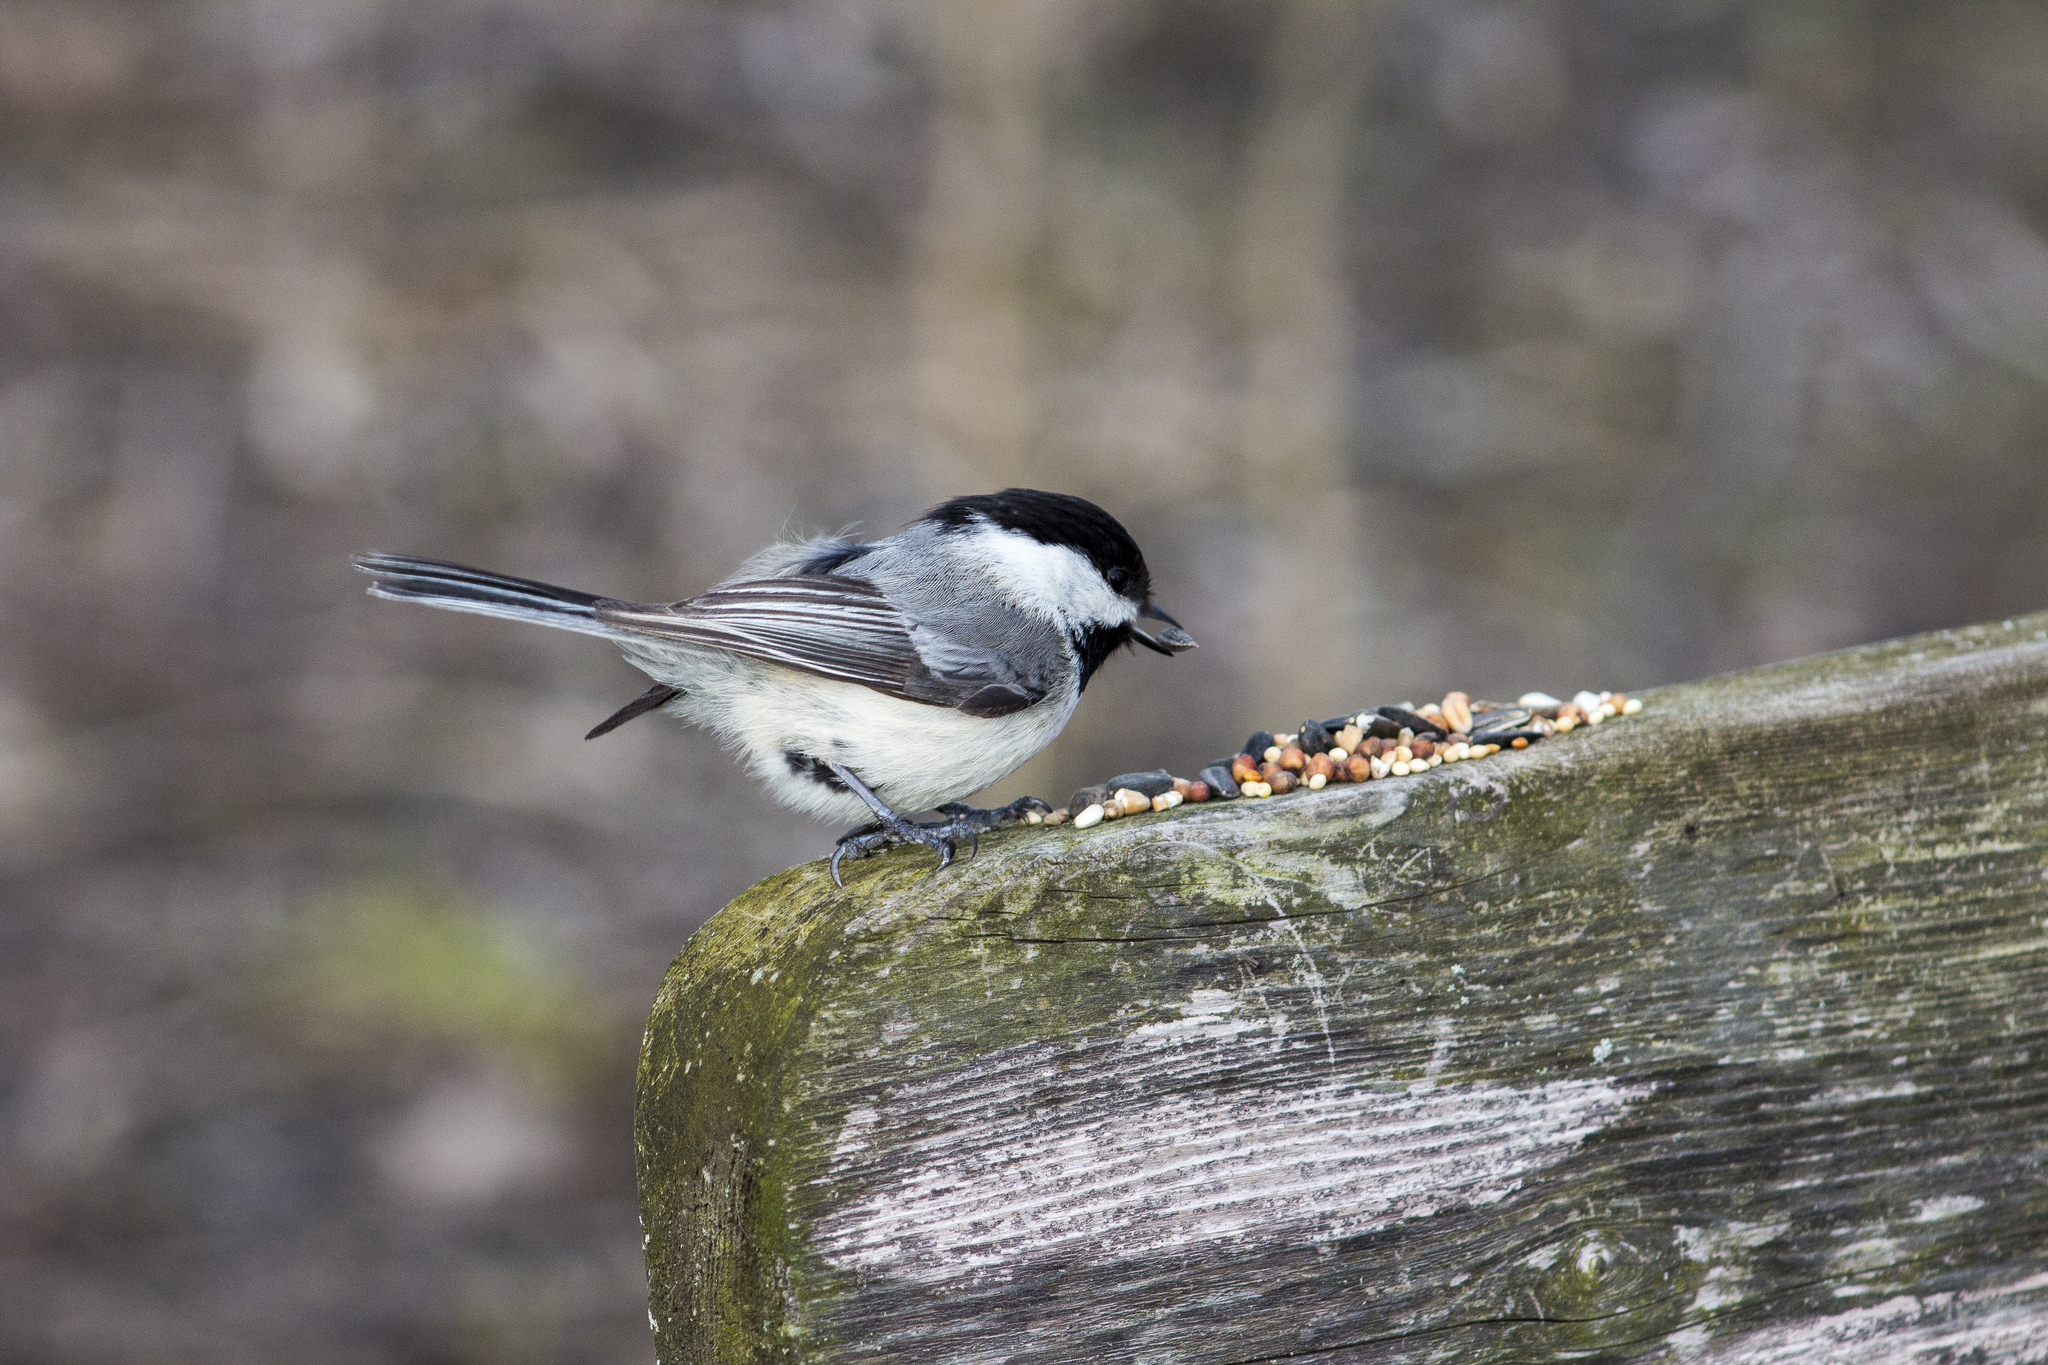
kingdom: Animalia
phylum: Chordata
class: Aves
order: Passeriformes
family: Paridae
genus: Poecile
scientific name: Poecile atricapillus
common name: Black-capped chickadee
